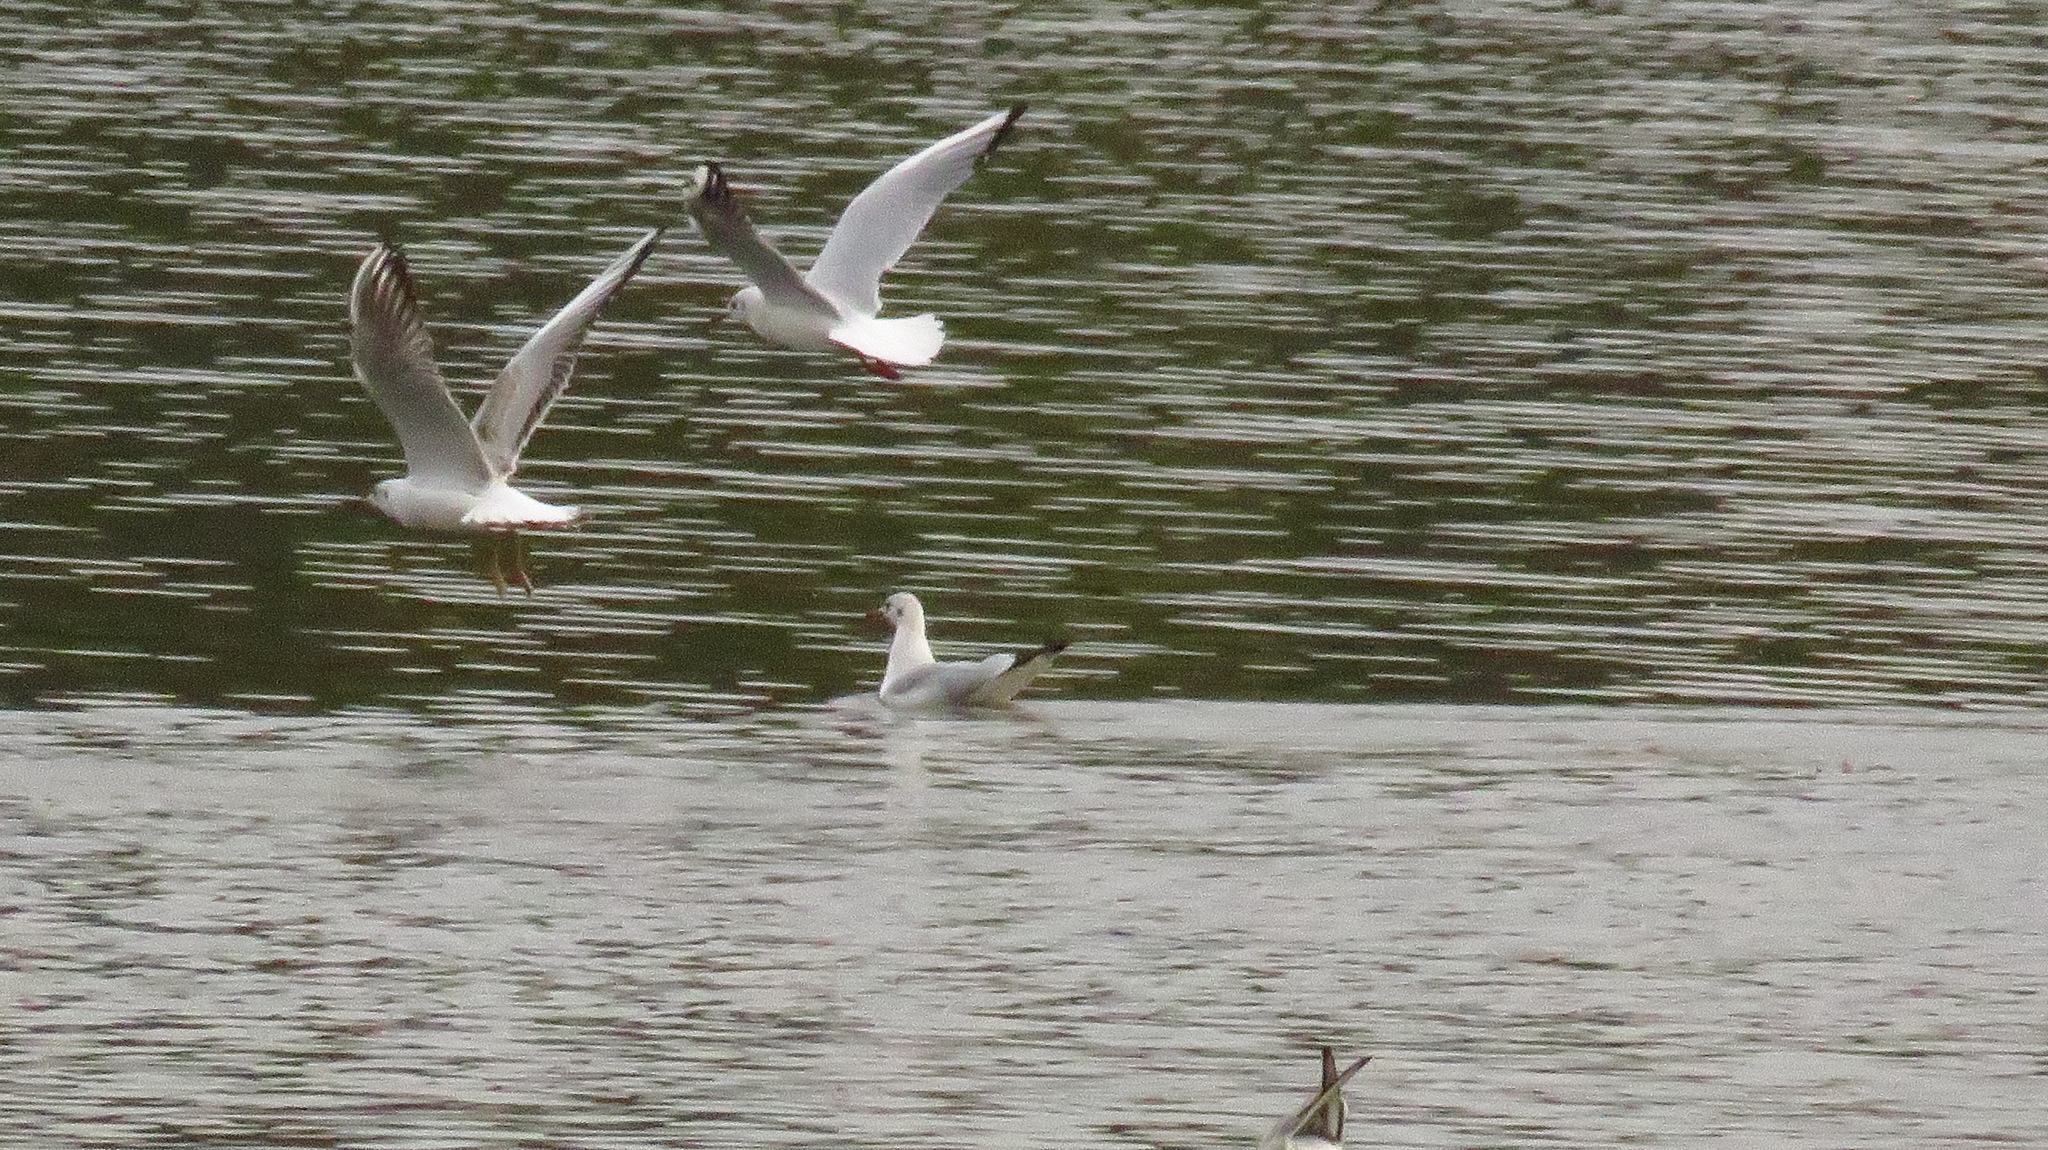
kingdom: Animalia
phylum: Chordata
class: Aves
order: Charadriiformes
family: Laridae
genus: Chroicocephalus
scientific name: Chroicocephalus ridibundus
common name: Black-headed gull
